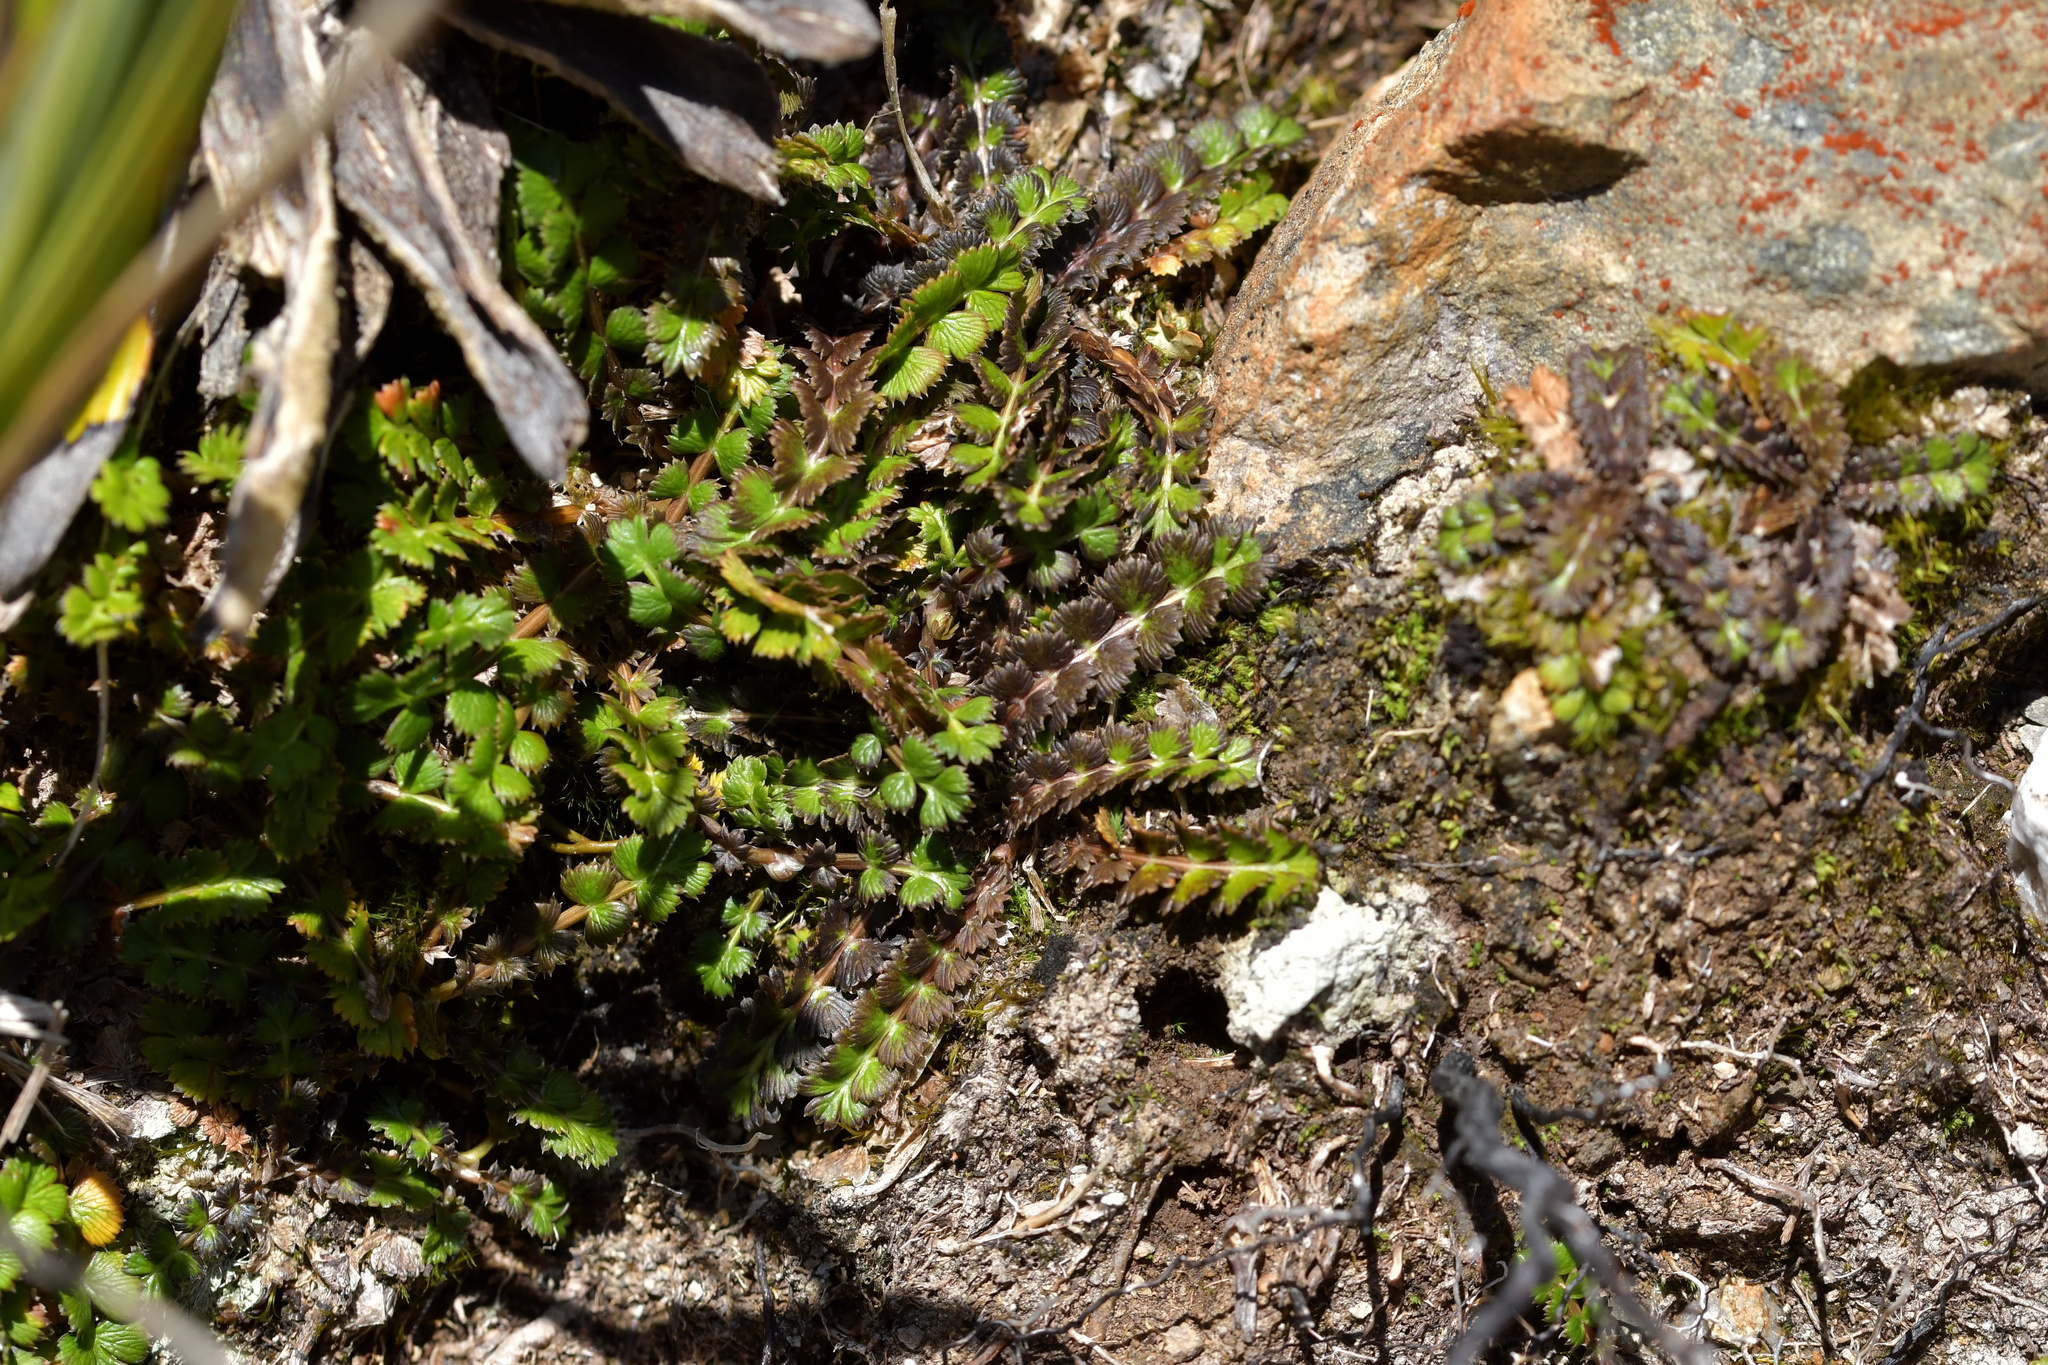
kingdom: Plantae
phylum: Tracheophyta
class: Magnoliopsida
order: Apiales
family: Apiaceae
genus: Anisotome
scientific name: Anisotome aromatica
